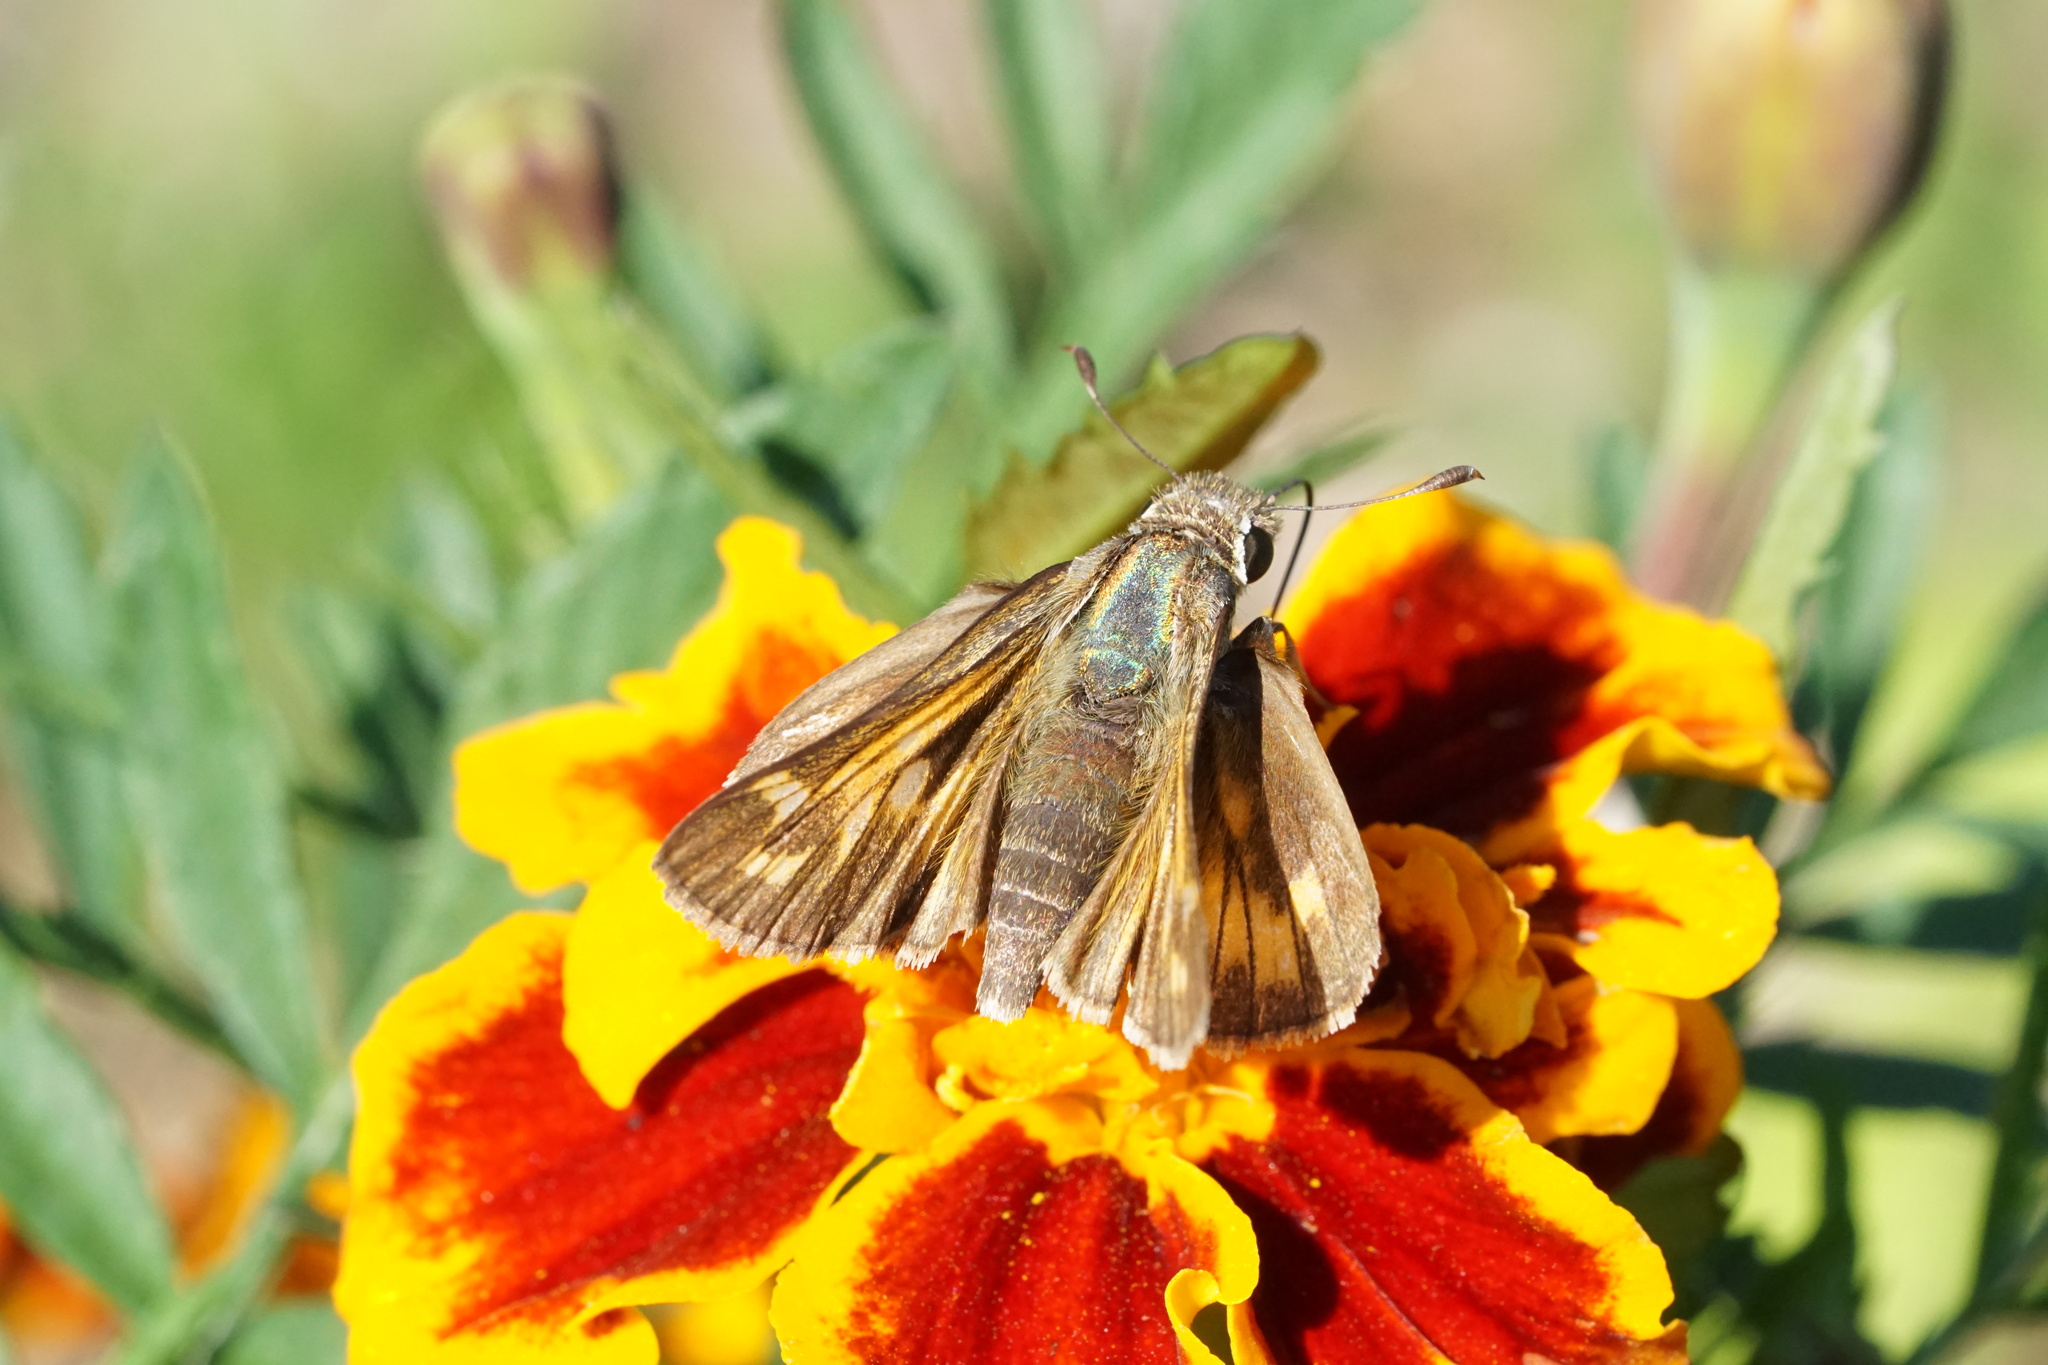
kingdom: Animalia
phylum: Arthropoda
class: Insecta
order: Lepidoptera
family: Hesperiidae
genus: Atalopedes
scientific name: Atalopedes
